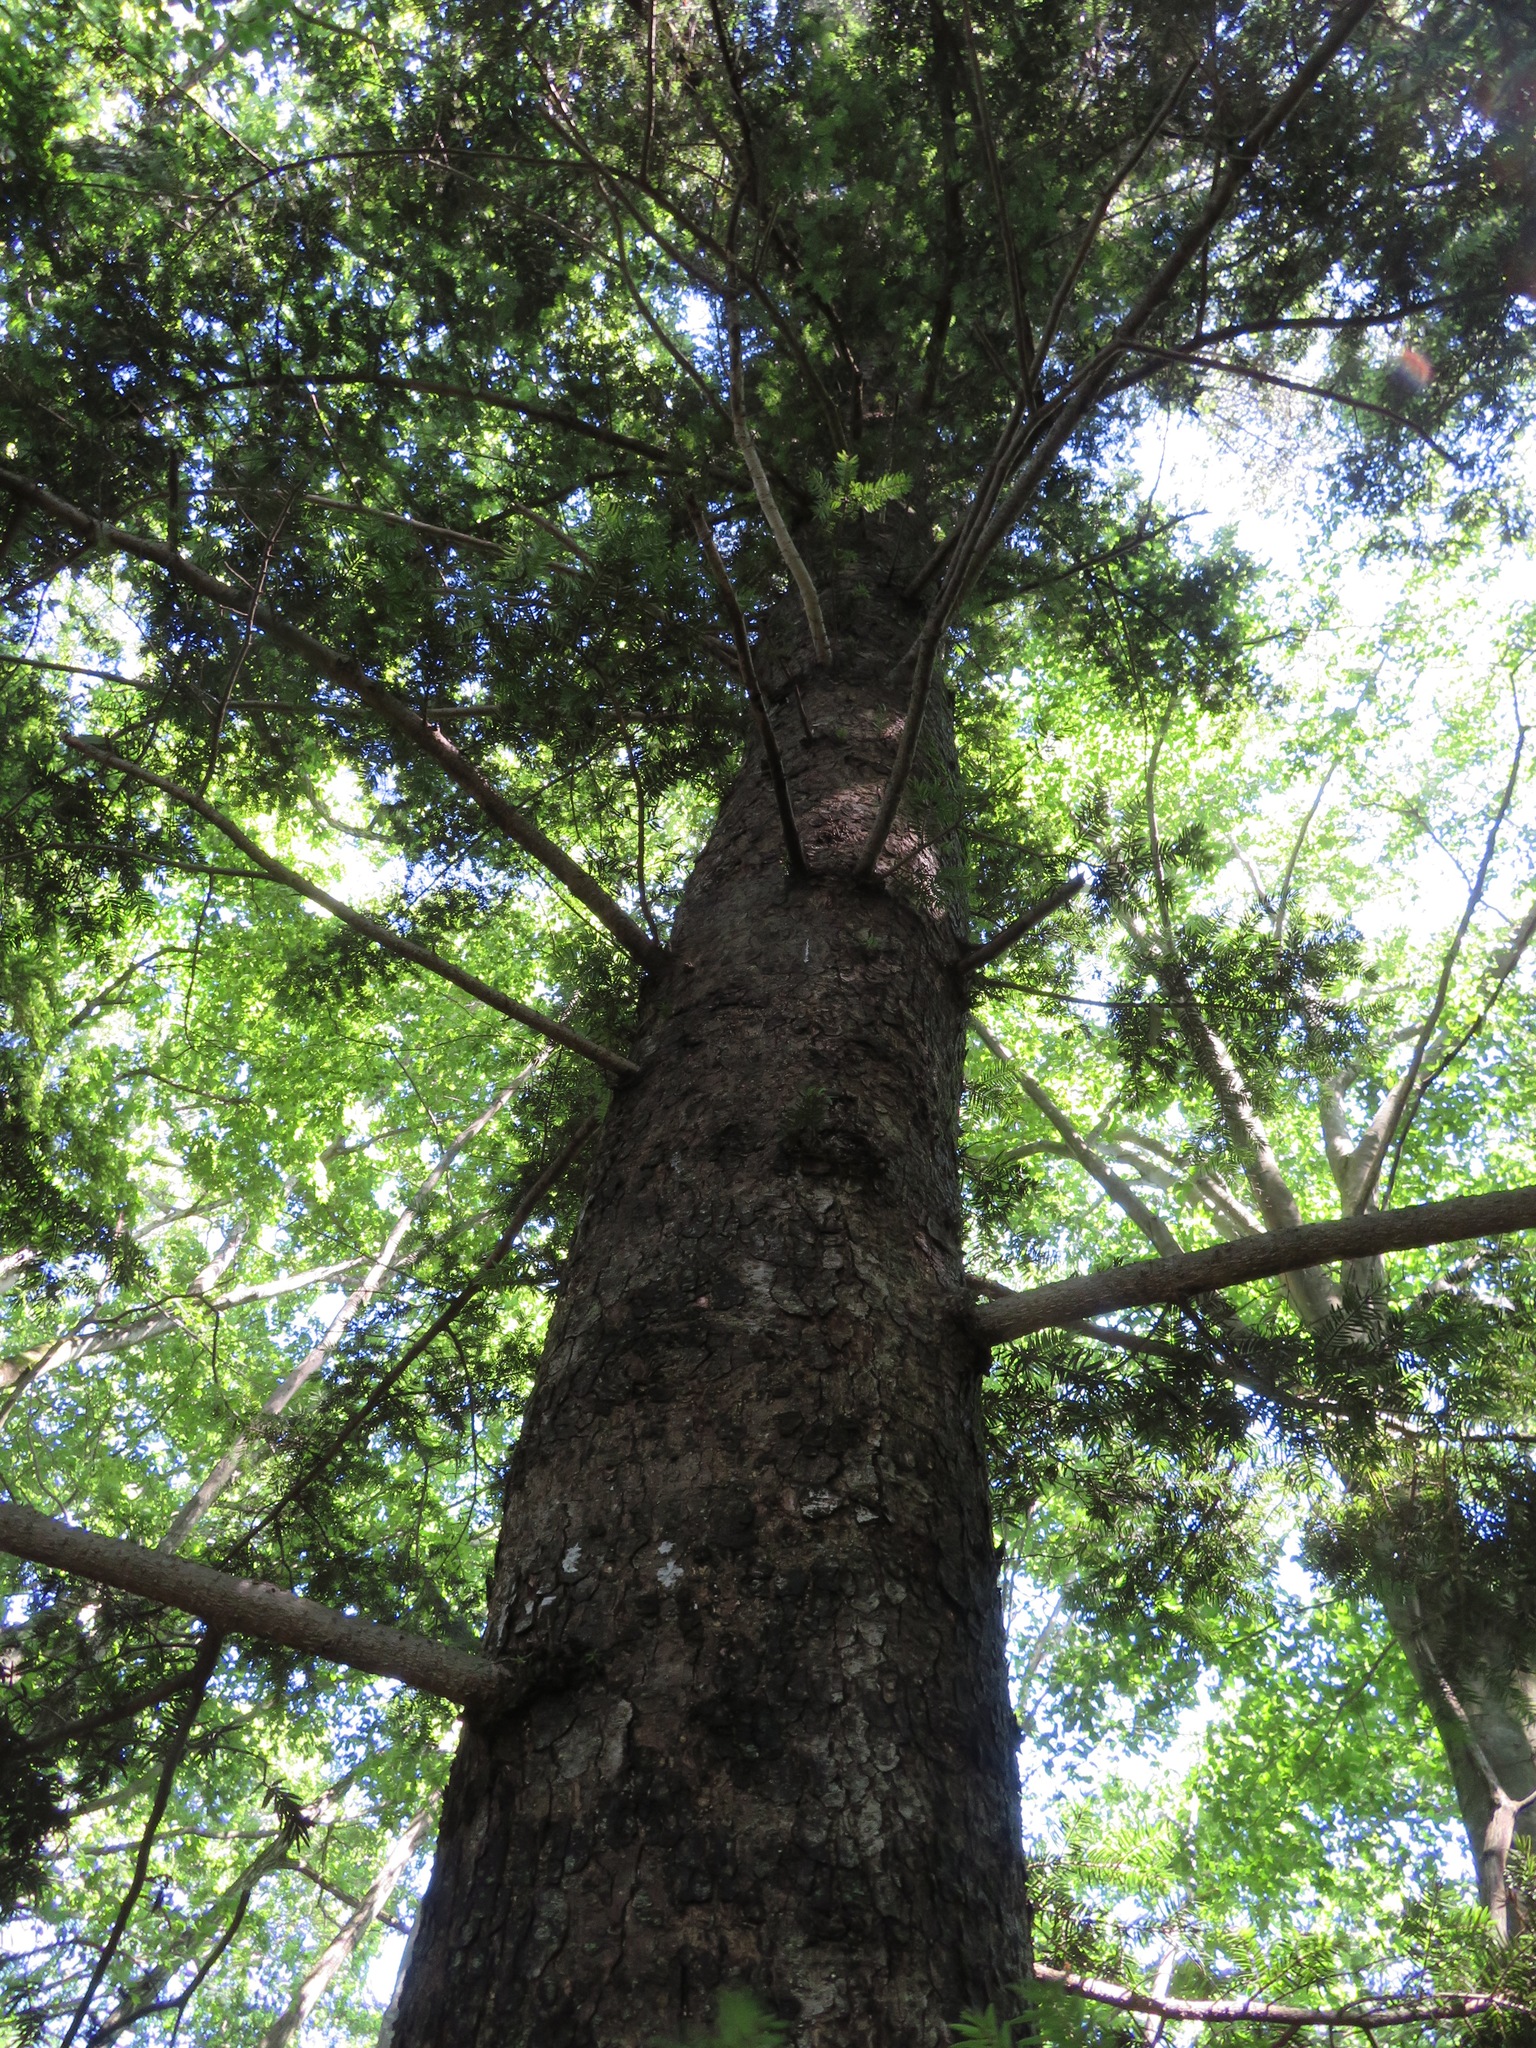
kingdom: Plantae
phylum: Tracheophyta
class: Pinopsida
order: Pinales
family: Pinaceae
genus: Abies
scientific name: Abies firma
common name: Momi fir
